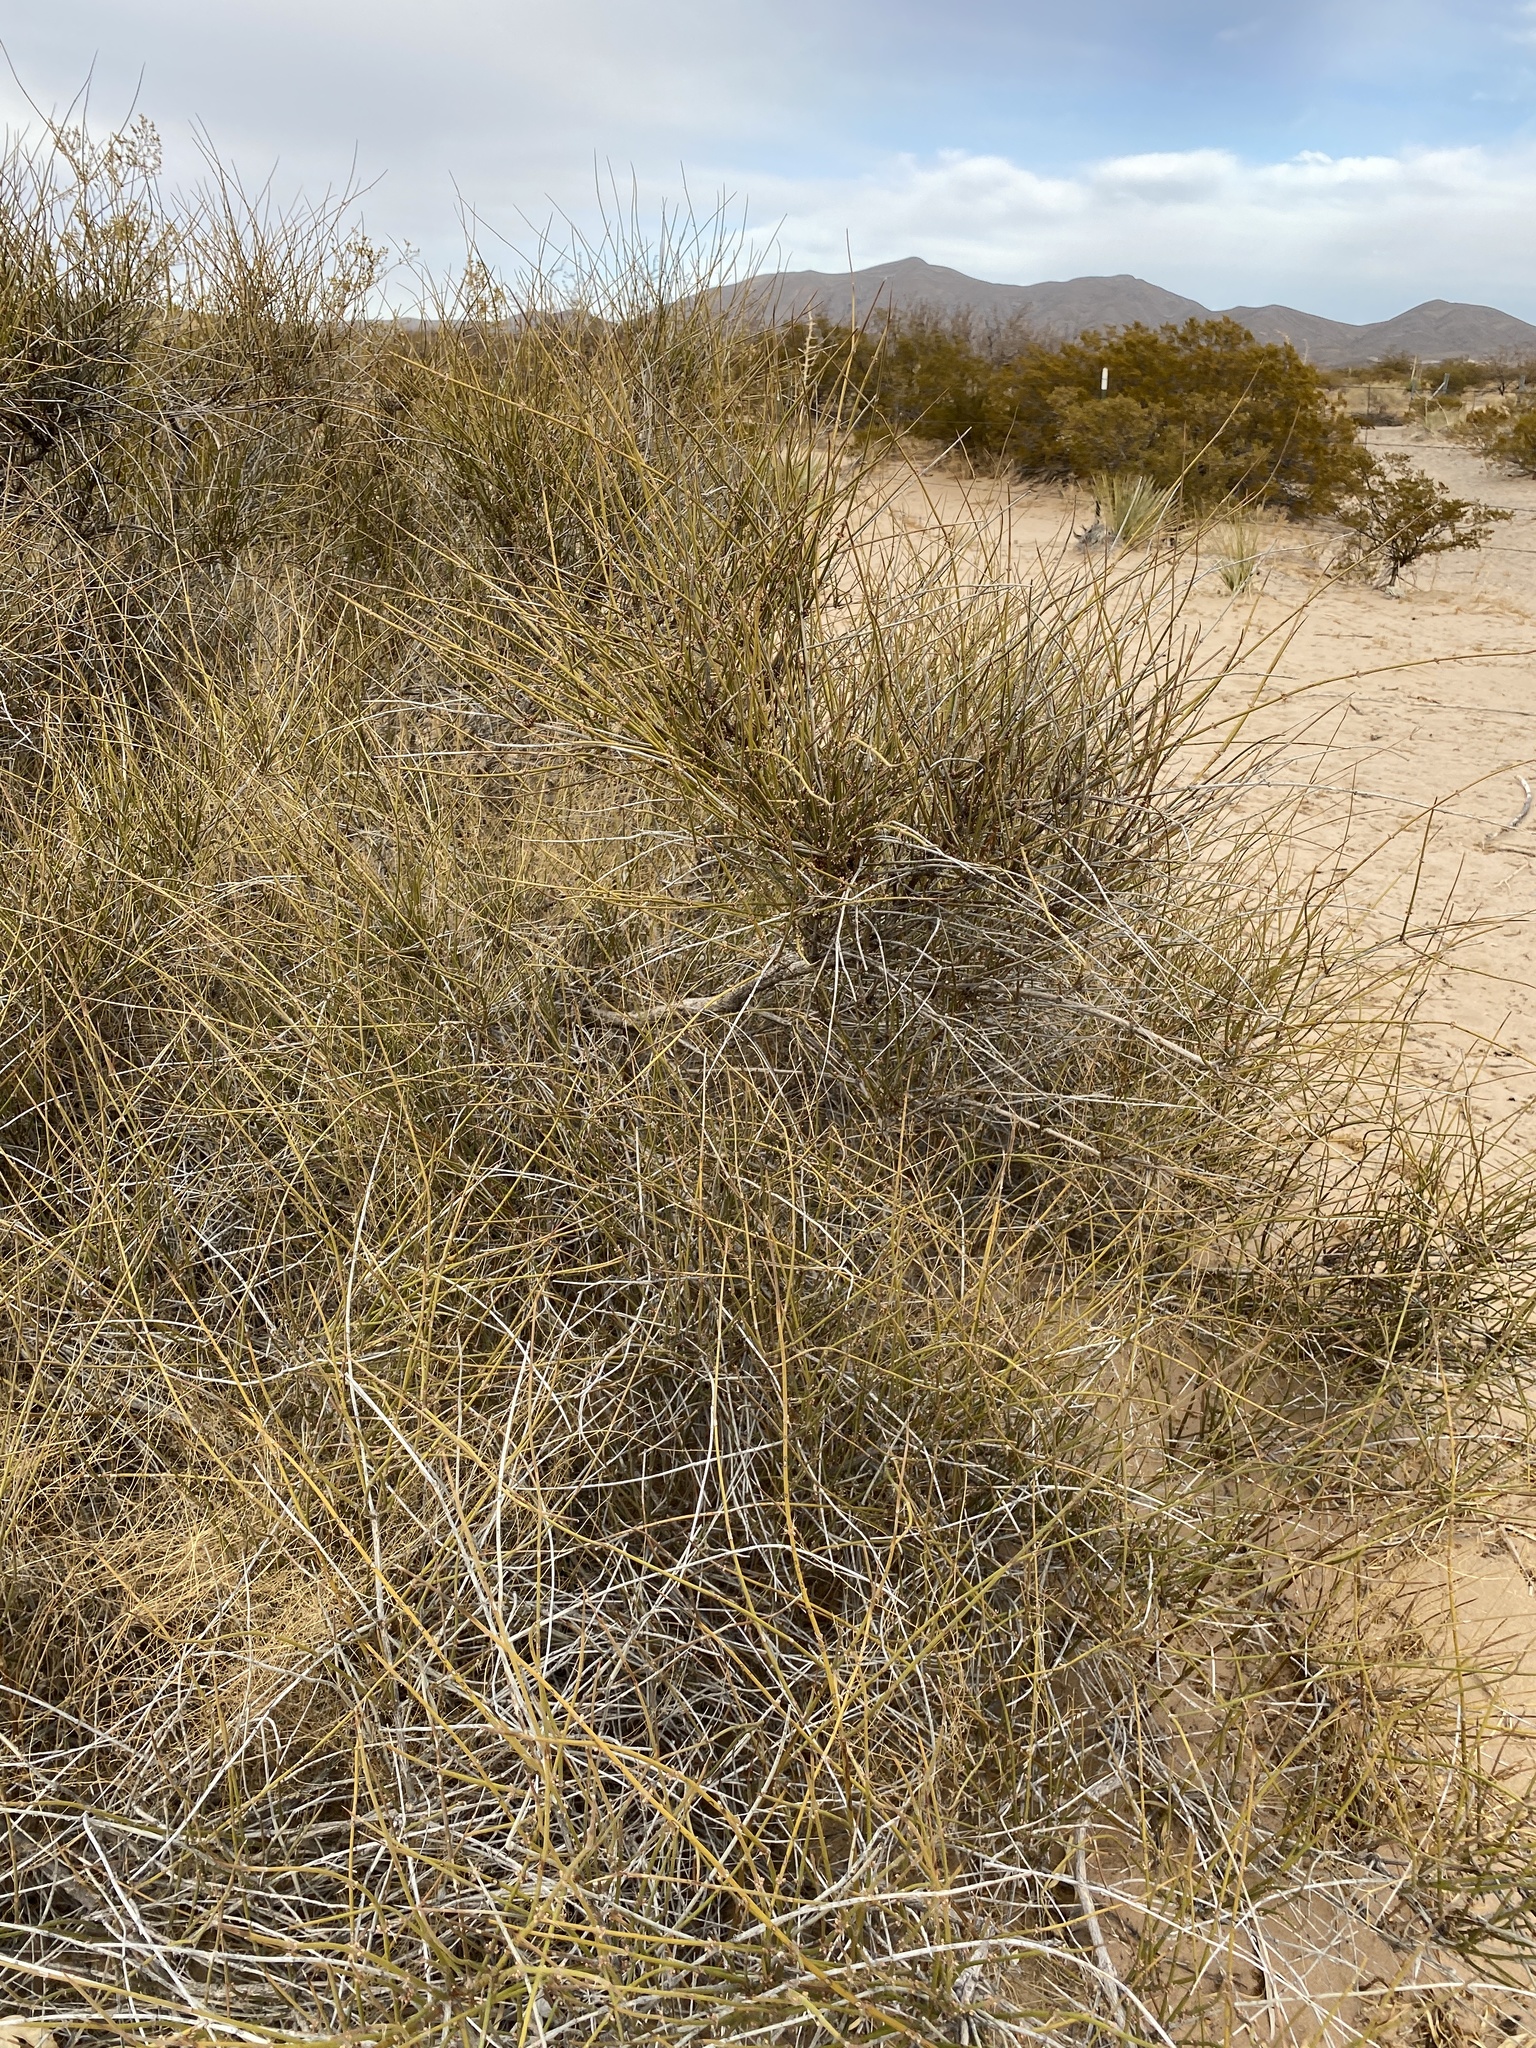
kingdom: Plantae
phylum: Tracheophyta
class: Gnetopsida
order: Ephedrales
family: Ephedraceae
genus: Ephedra
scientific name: Ephedra trifurca
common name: Mexican-tea
